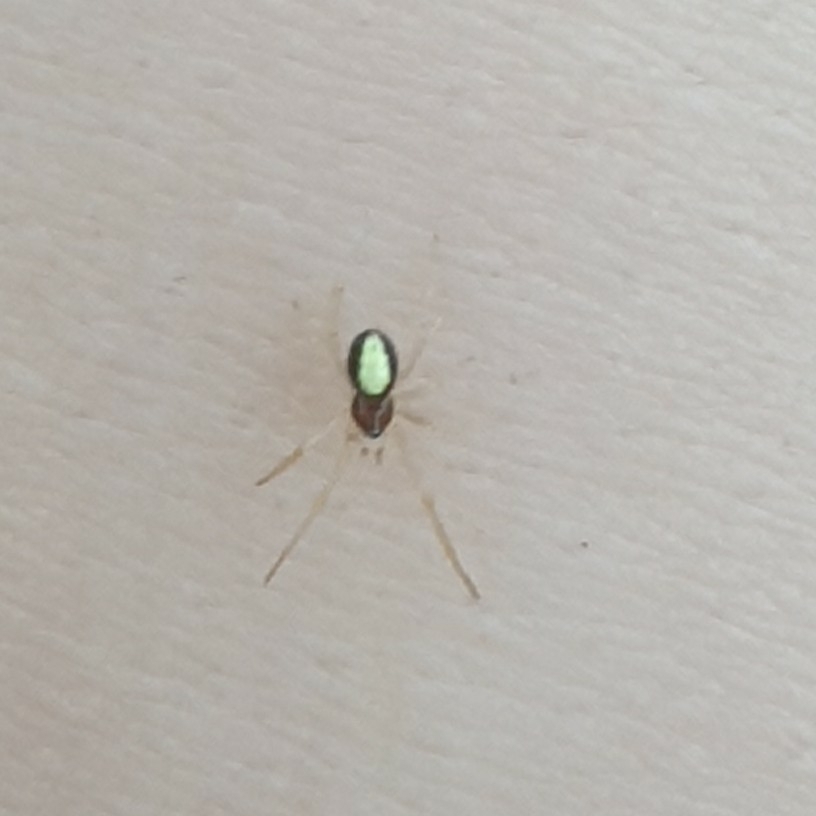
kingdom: Animalia
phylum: Arthropoda
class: Arachnida
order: Araneae
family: Theridiidae
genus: Neottiura
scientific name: Neottiura bimaculata
